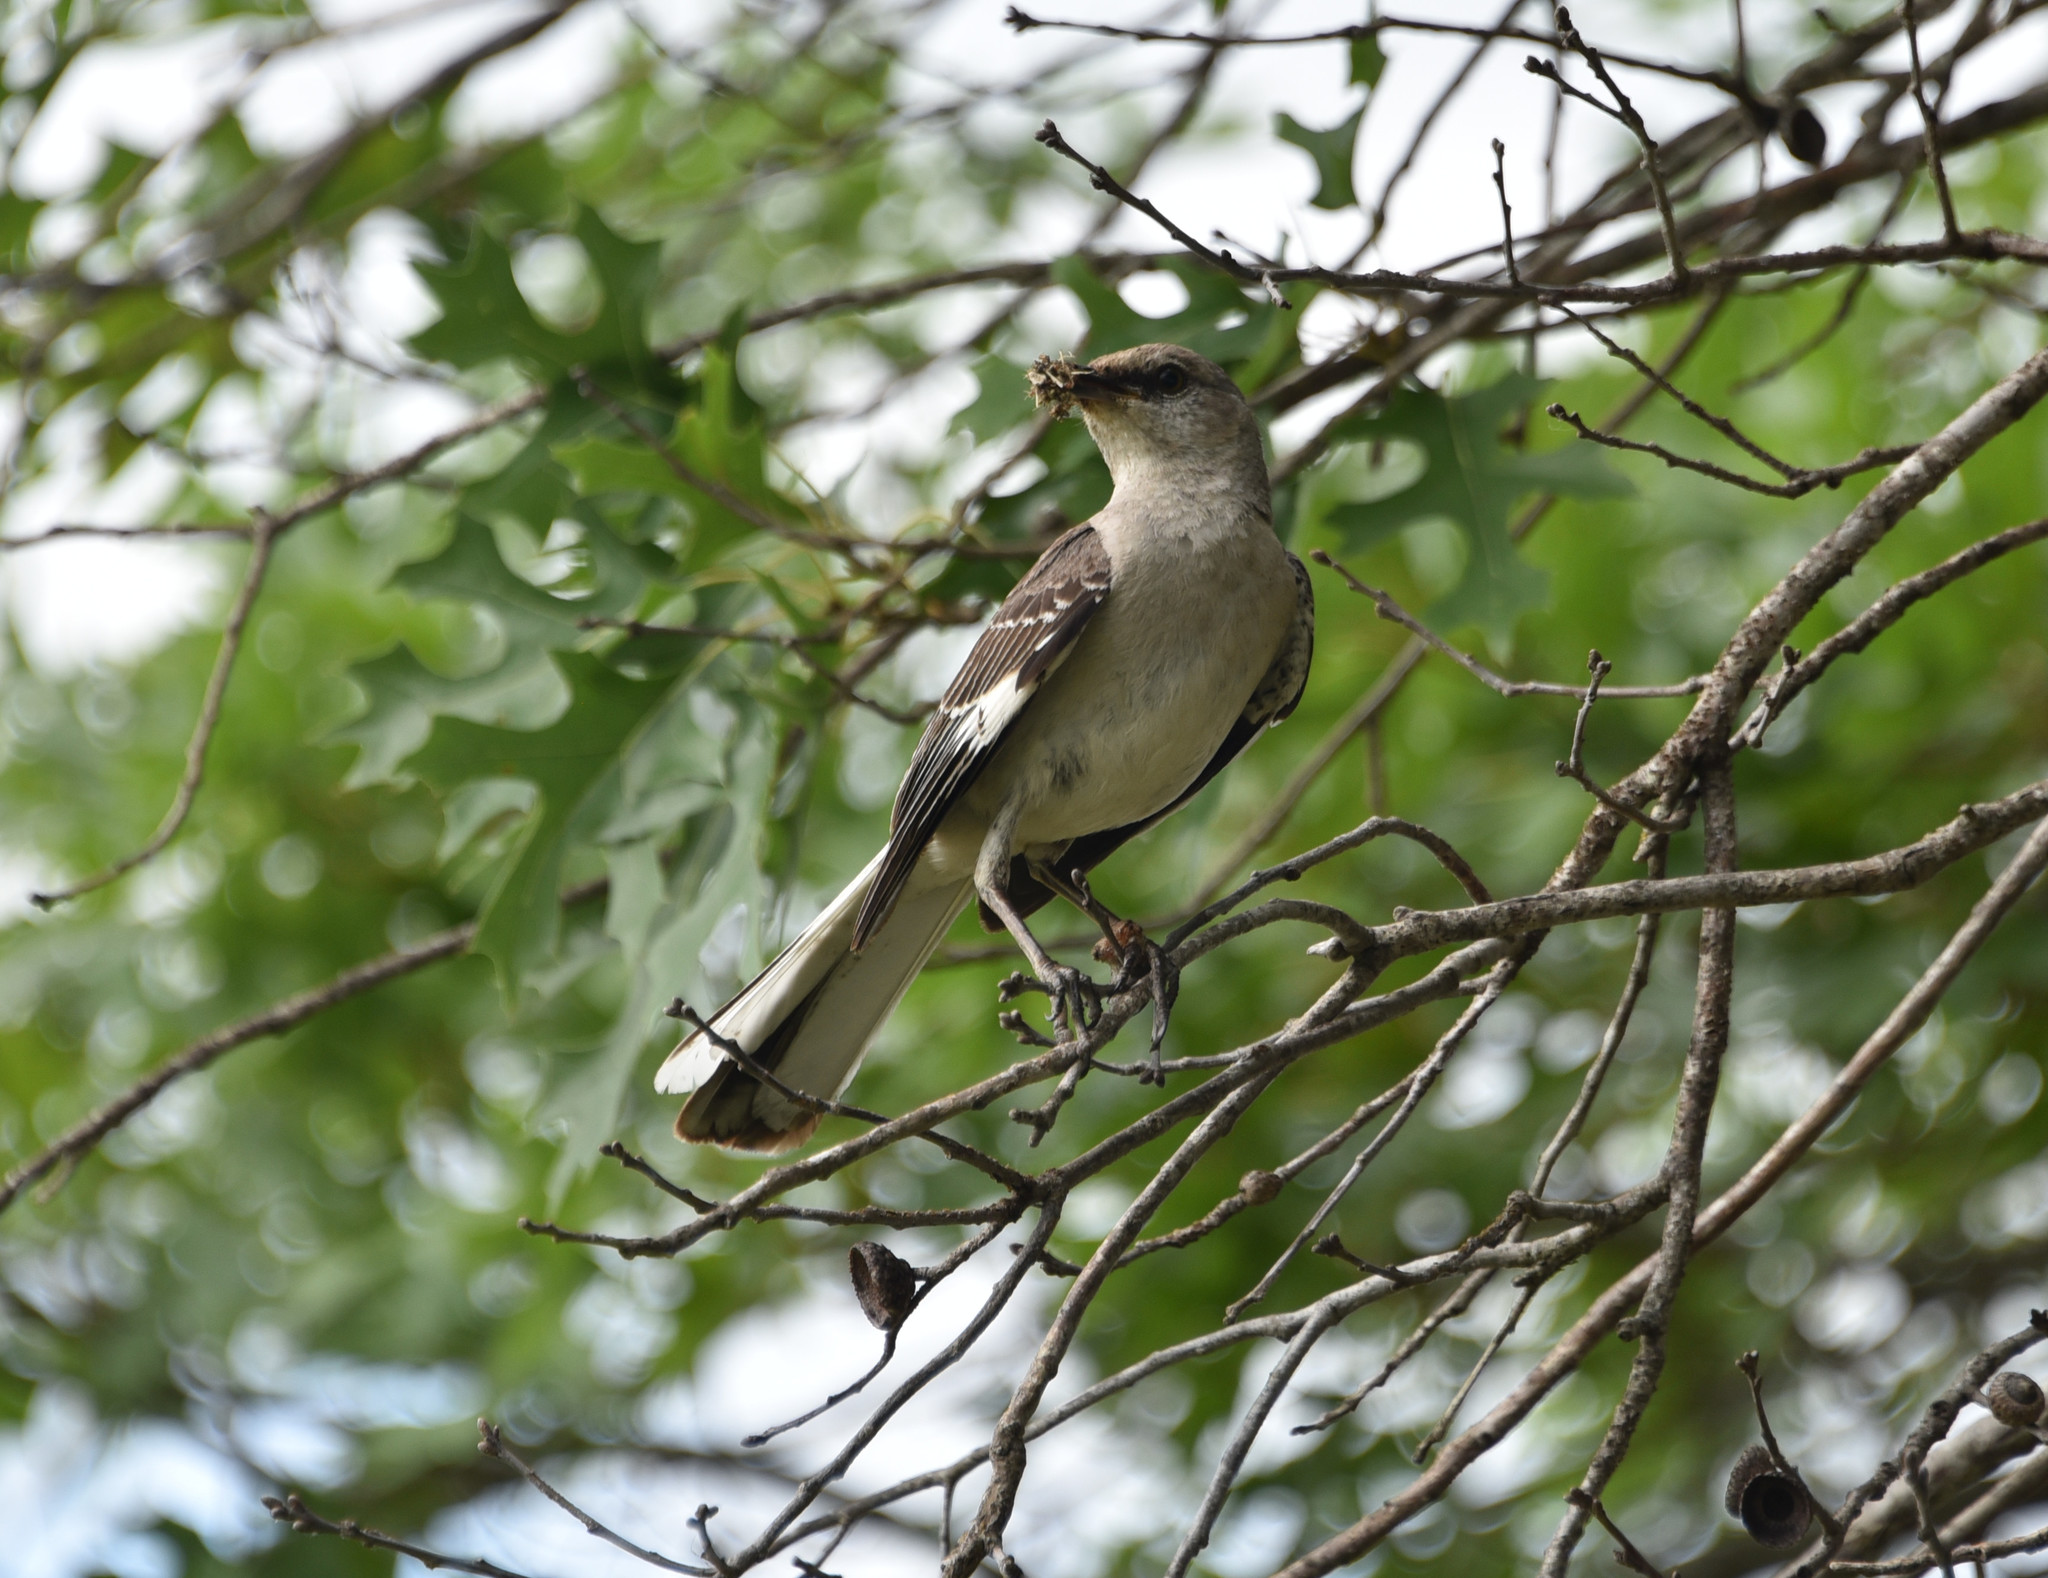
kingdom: Animalia
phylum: Chordata
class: Aves
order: Passeriformes
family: Mimidae
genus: Mimus
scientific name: Mimus polyglottos
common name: Northern mockingbird
